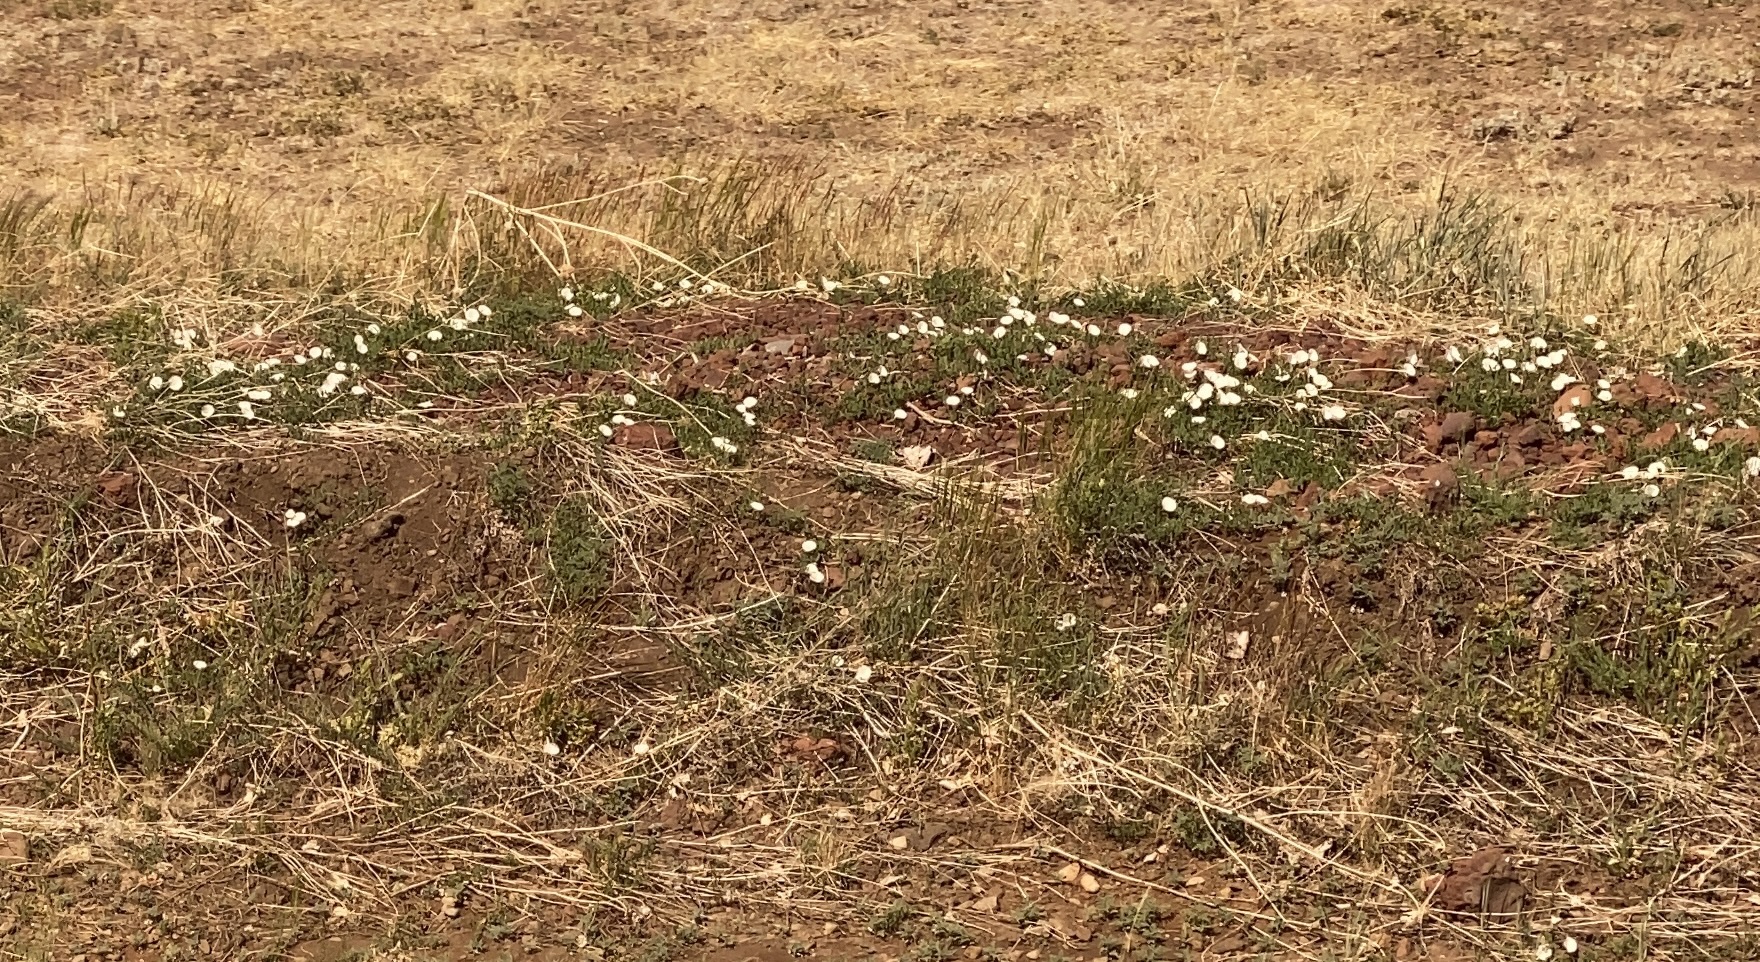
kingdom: Plantae
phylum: Tracheophyta
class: Magnoliopsida
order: Solanales
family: Convolvulaceae
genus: Convolvulus
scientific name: Convolvulus arvensis
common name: Field bindweed
